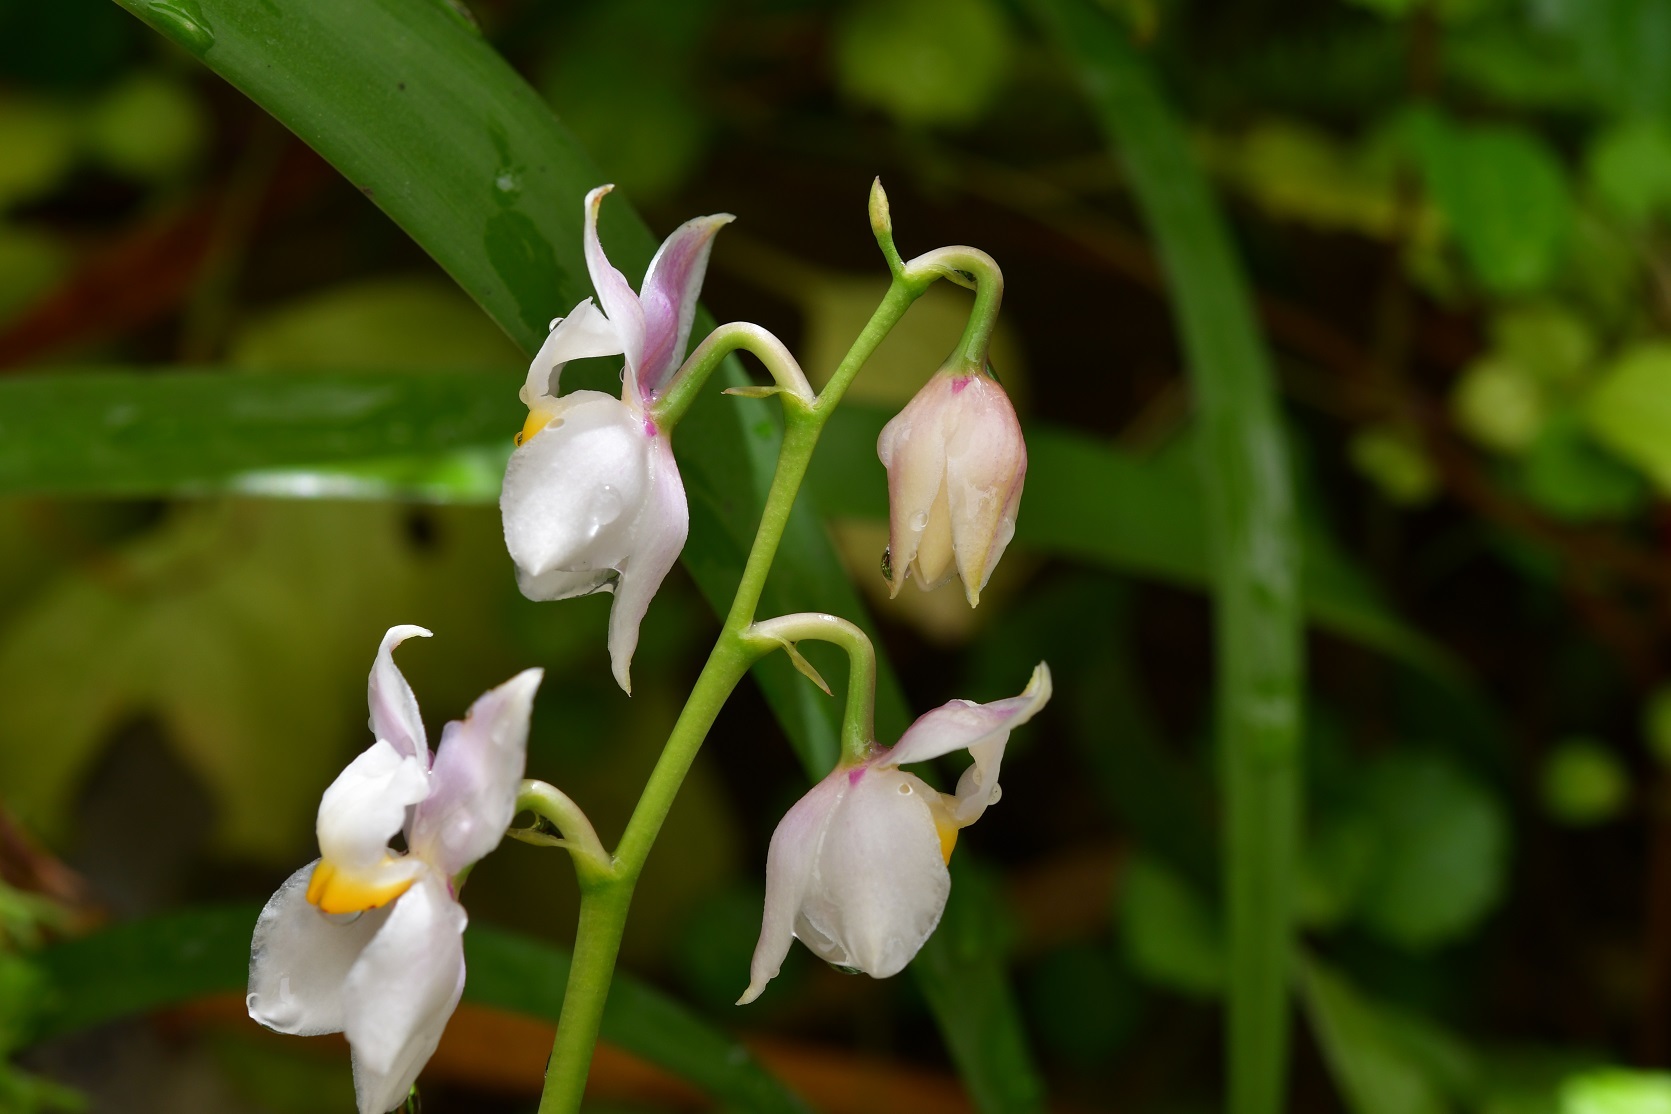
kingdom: Plantae
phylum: Tracheophyta
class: Liliopsida
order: Asparagales
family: Orchidaceae
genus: Cuitlauzina
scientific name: Cuitlauzina pulchella
